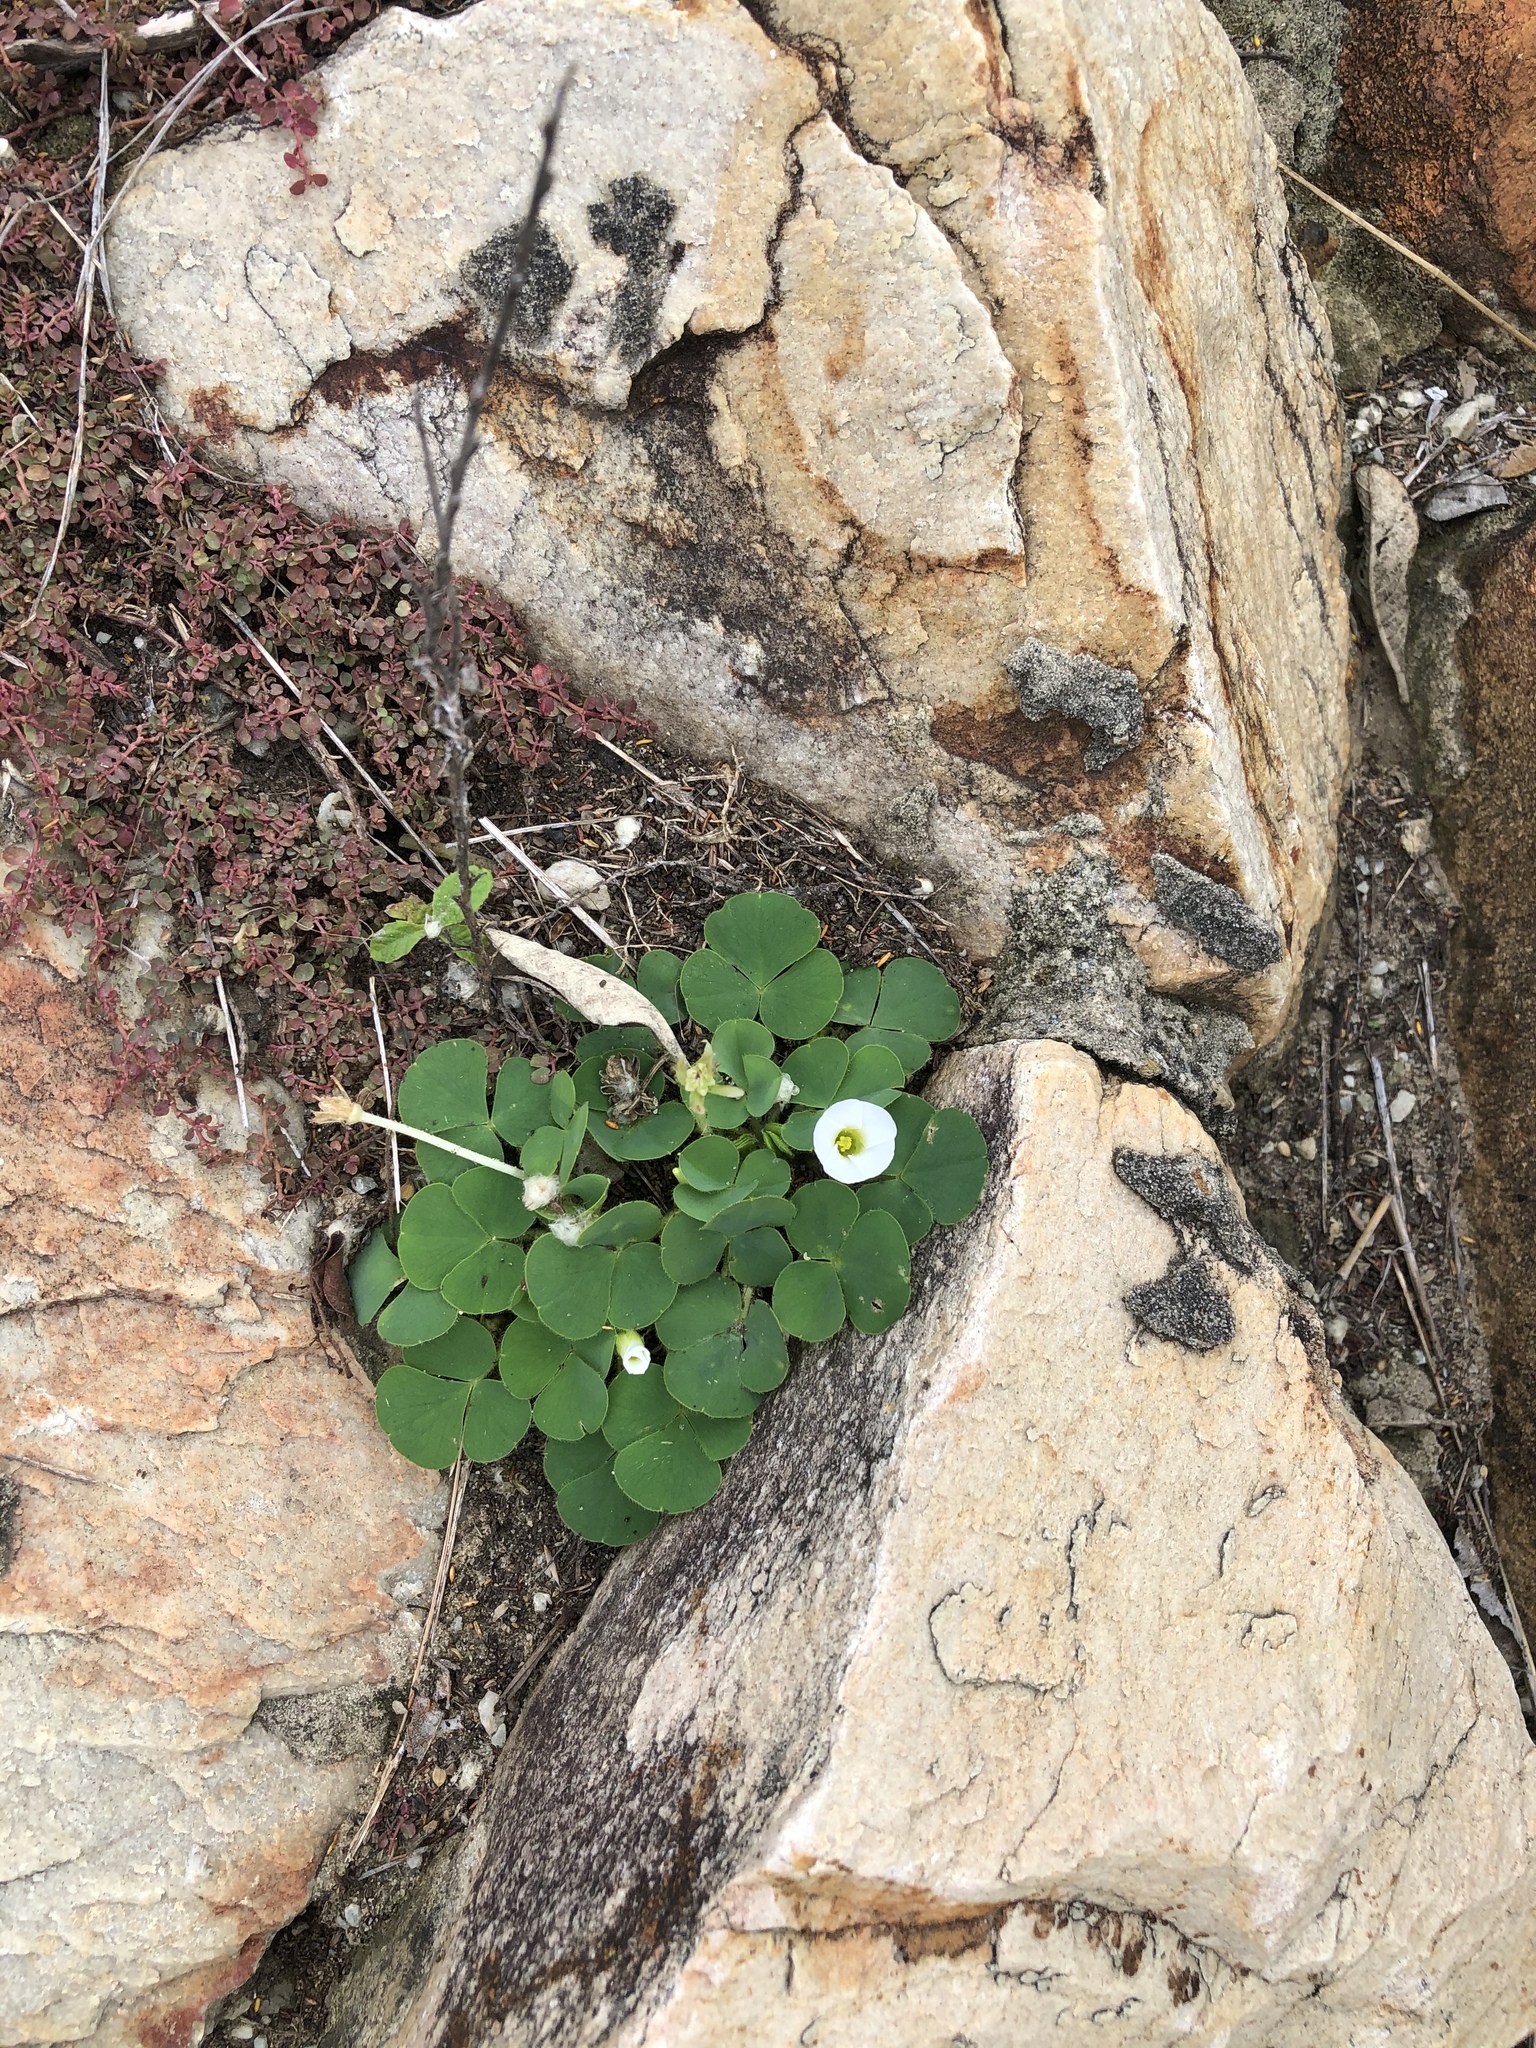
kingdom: Plantae
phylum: Tracheophyta
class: Magnoliopsida
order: Oxalidales
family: Oxalidaceae
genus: Oxalis
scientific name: Oxalis purpurea
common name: Purple woodsorrel
